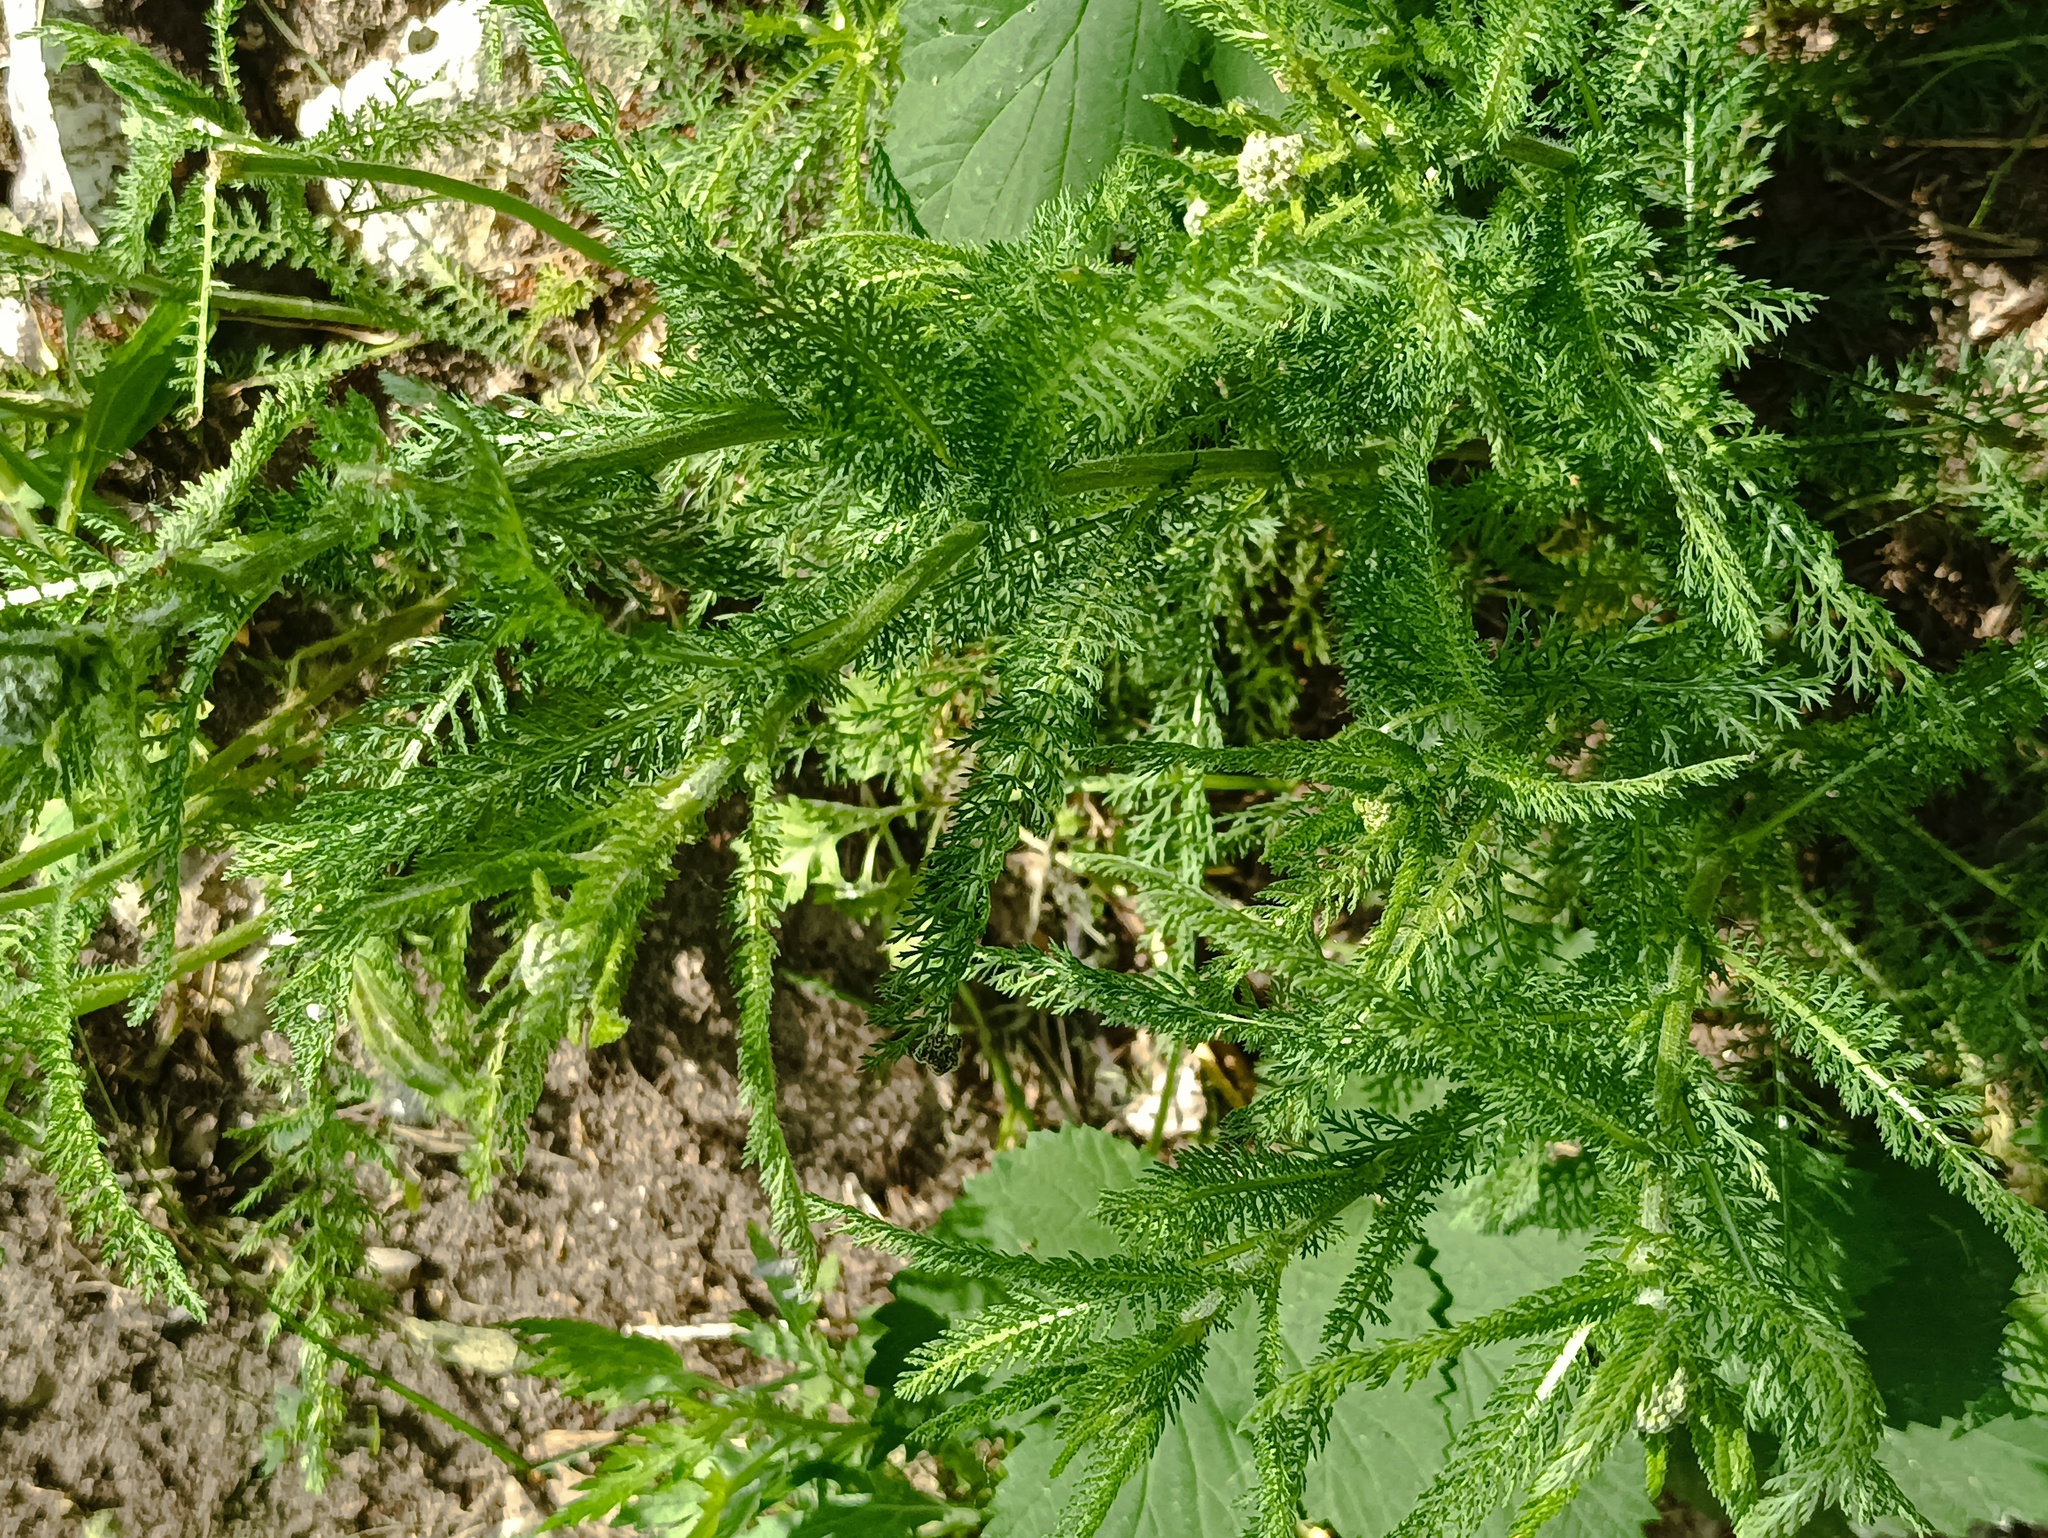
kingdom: Plantae
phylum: Tracheophyta
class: Magnoliopsida
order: Asterales
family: Asteraceae
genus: Achillea
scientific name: Achillea millefolium
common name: Yarrow
